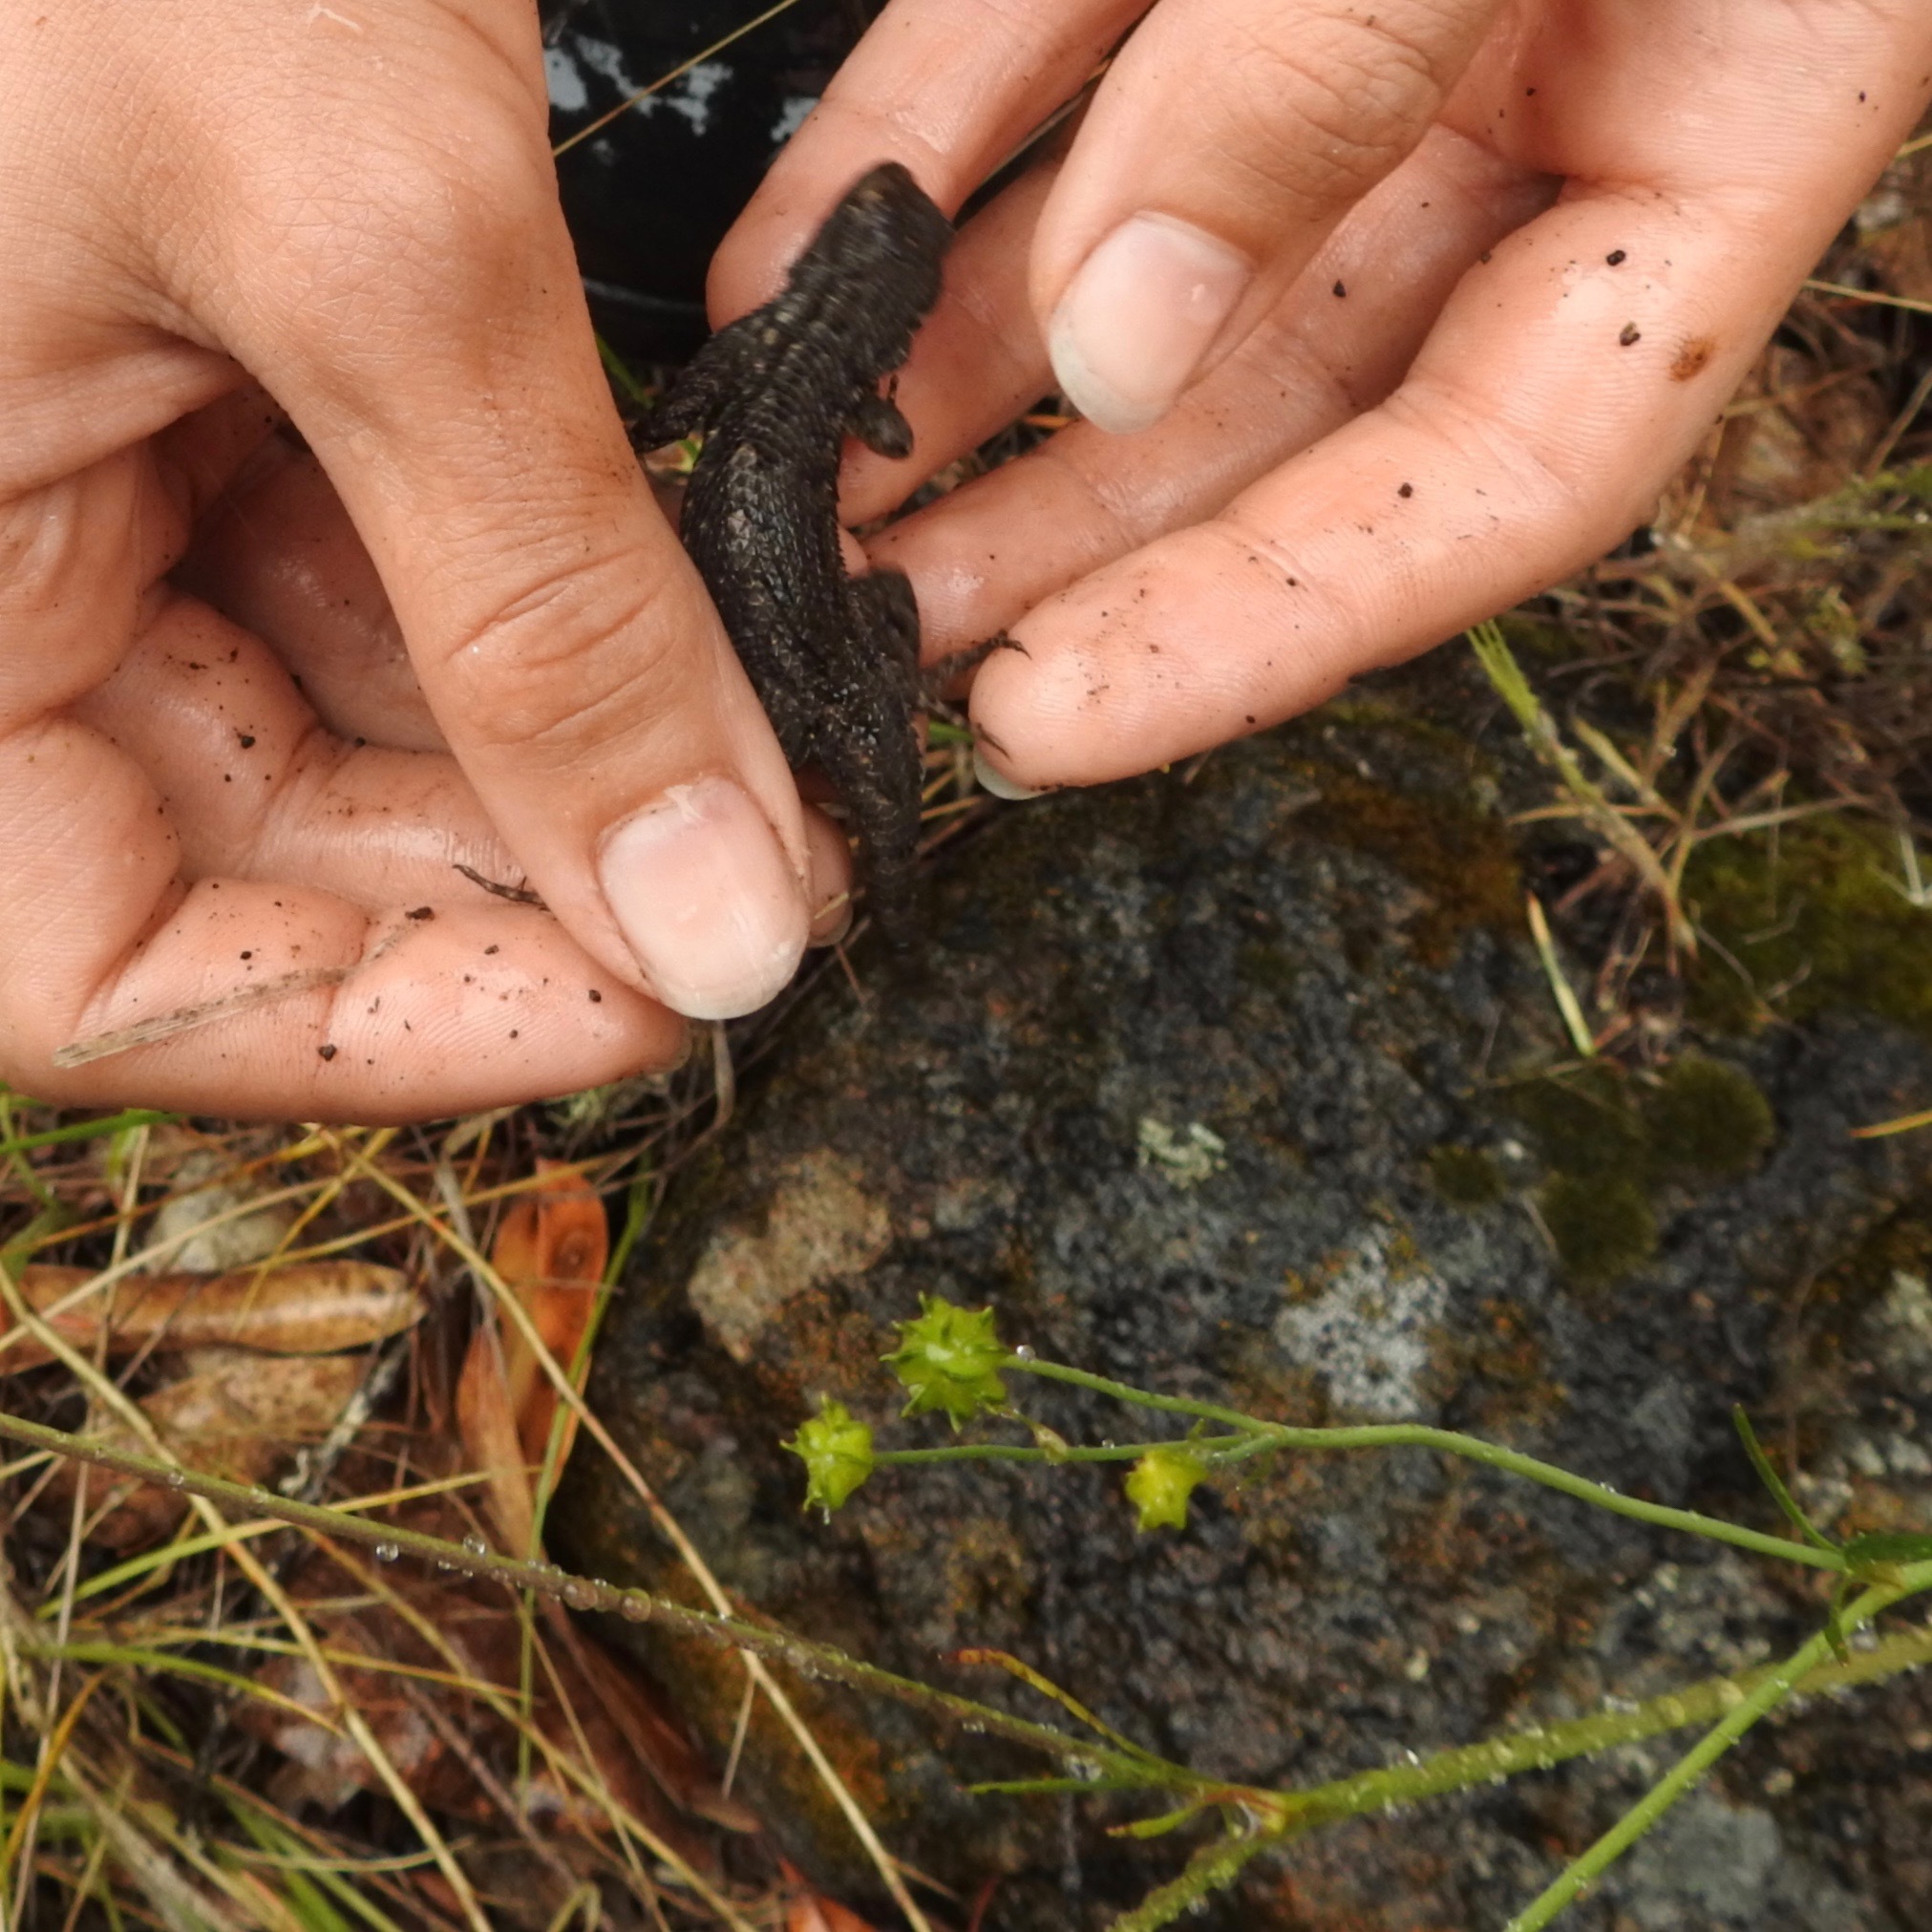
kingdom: Animalia
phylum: Chordata
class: Squamata
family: Phrynosomatidae
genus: Sceloporus
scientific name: Sceloporus occidentalis
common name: Western fence lizard
